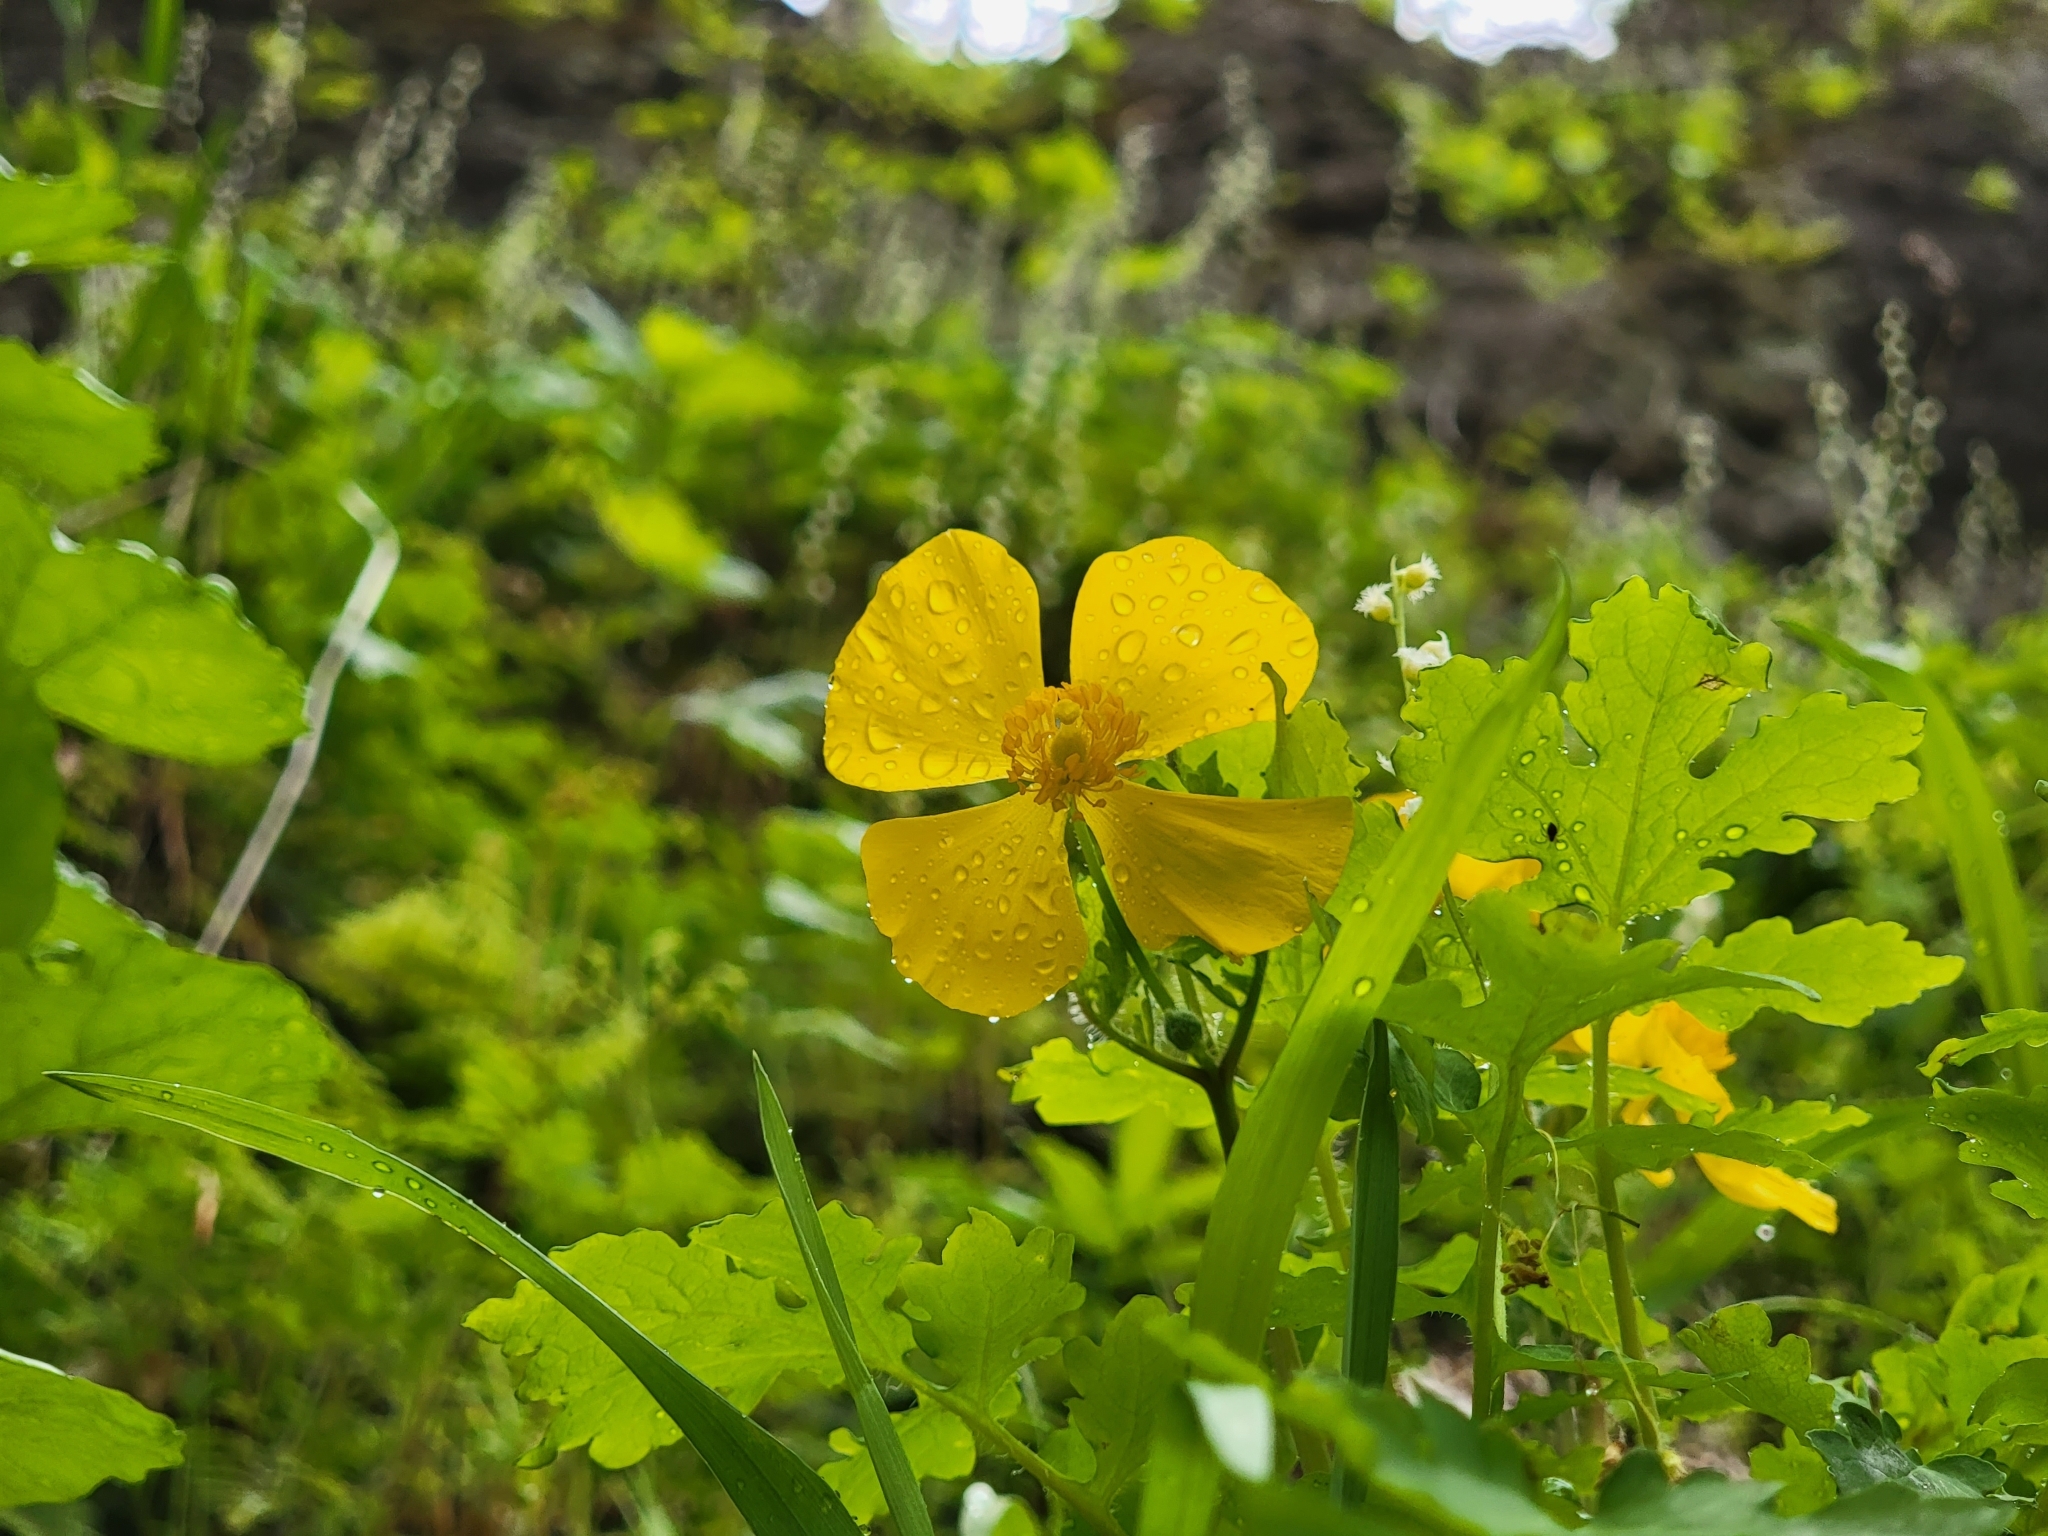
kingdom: Plantae
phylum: Tracheophyta
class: Magnoliopsida
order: Ranunculales
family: Papaveraceae
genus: Stylophorum
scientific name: Stylophorum diphyllum
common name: Celandine poppy
